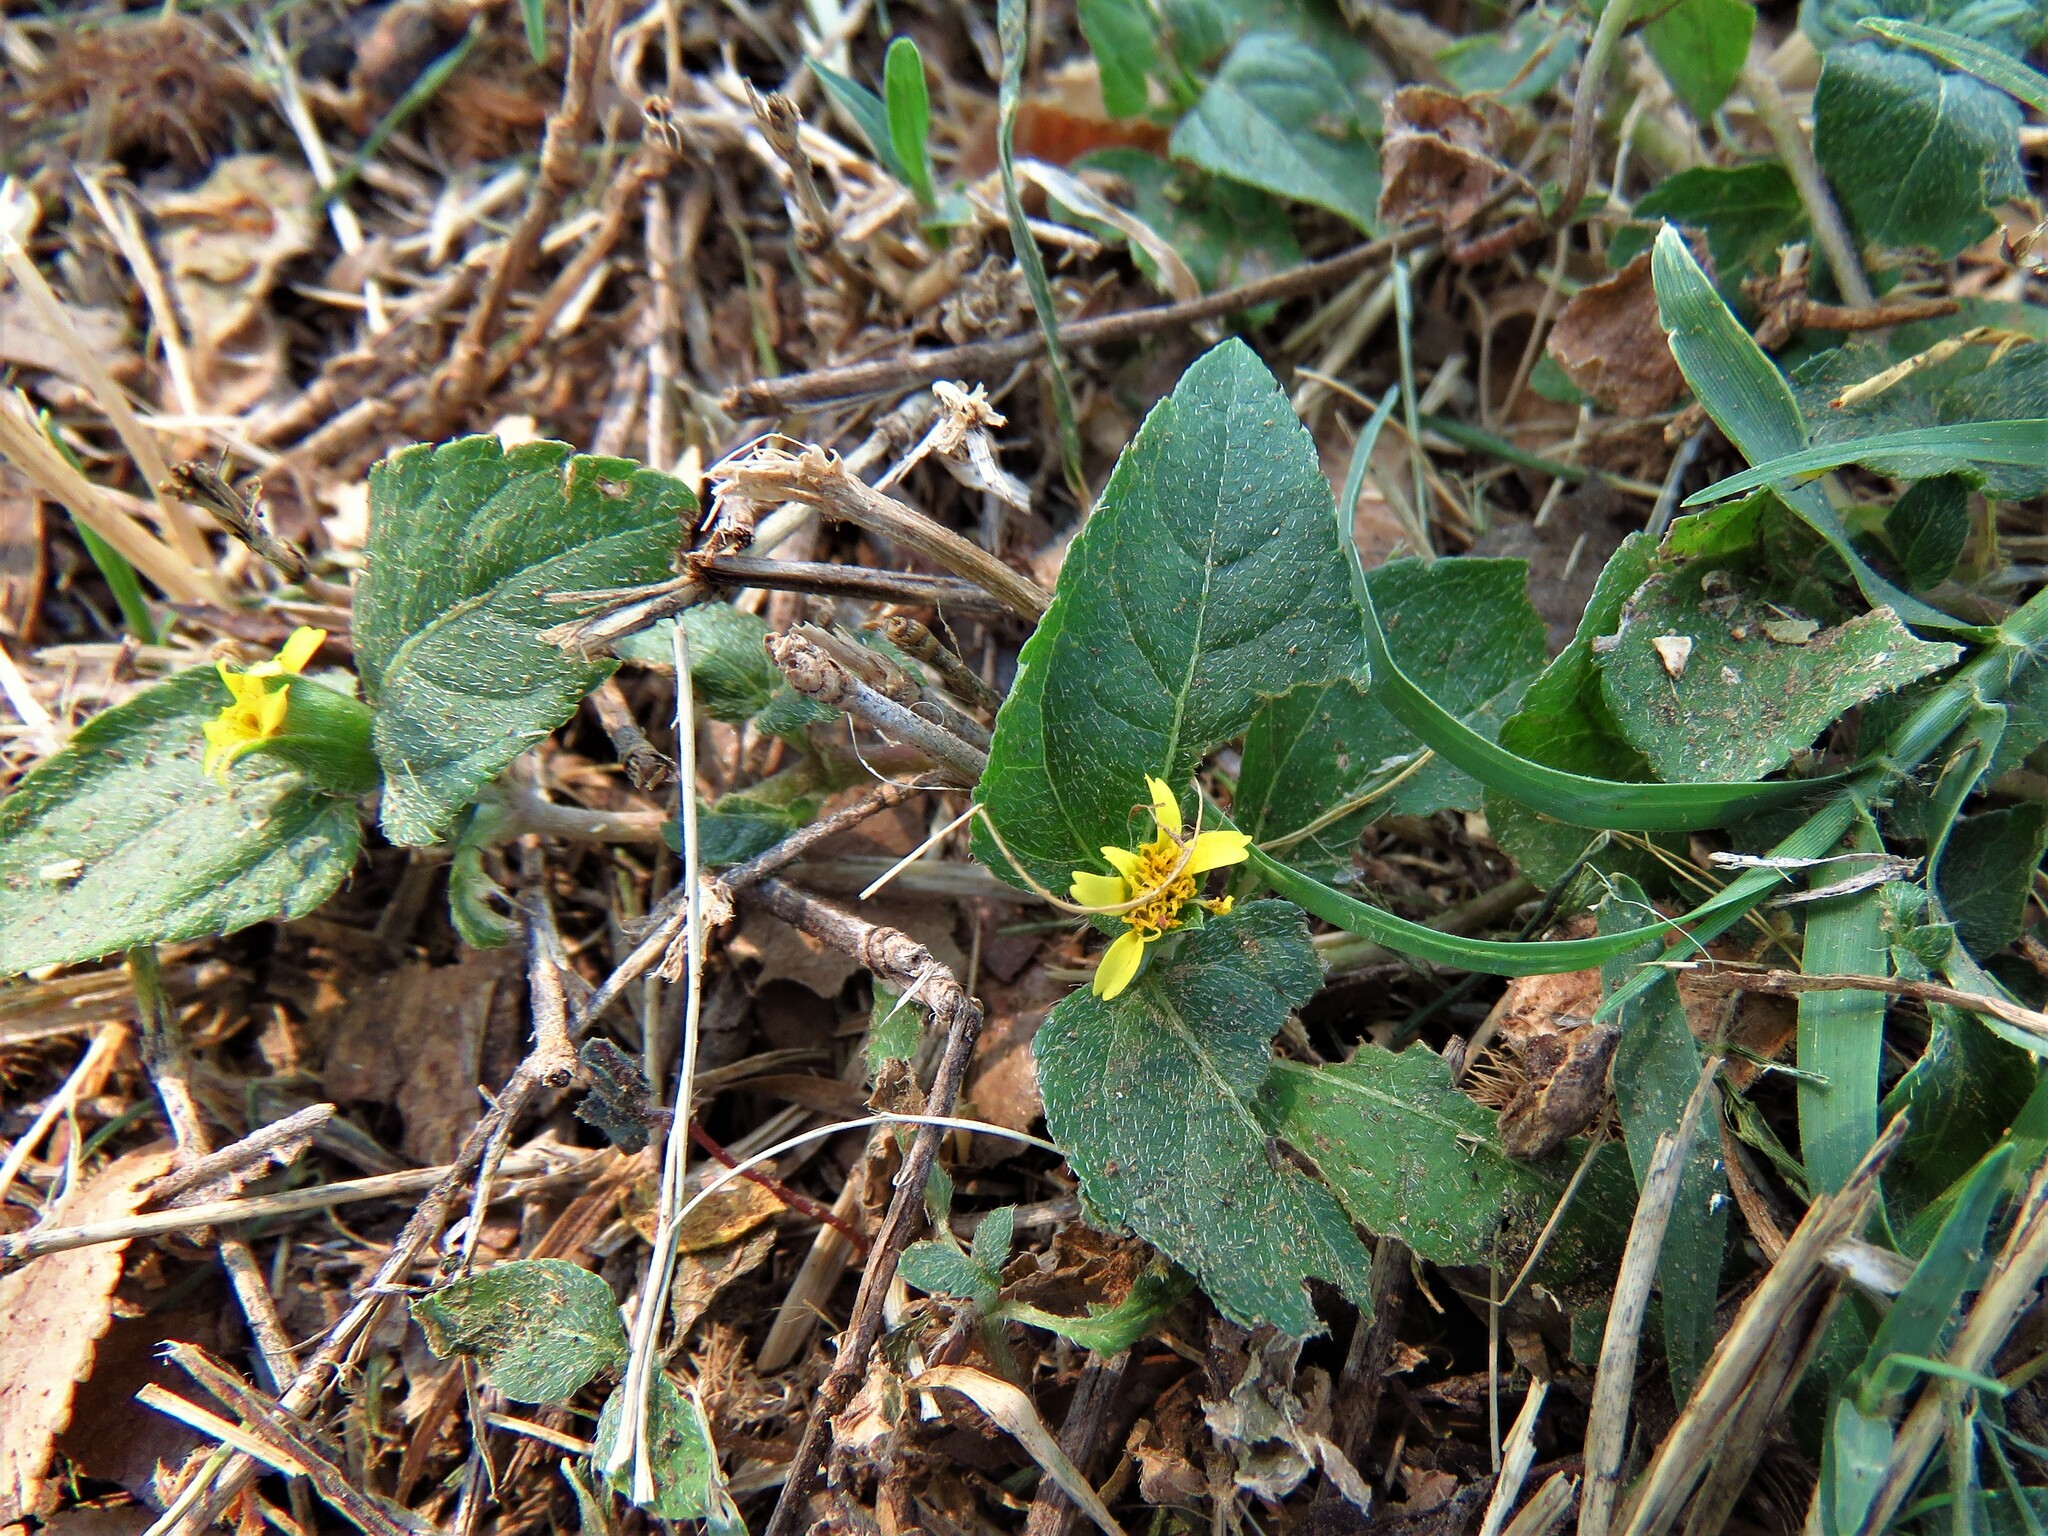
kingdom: Plantae
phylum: Tracheophyta
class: Magnoliopsida
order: Asterales
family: Asteraceae
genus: Calyptocarpus
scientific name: Calyptocarpus vialis
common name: Straggler daisy
